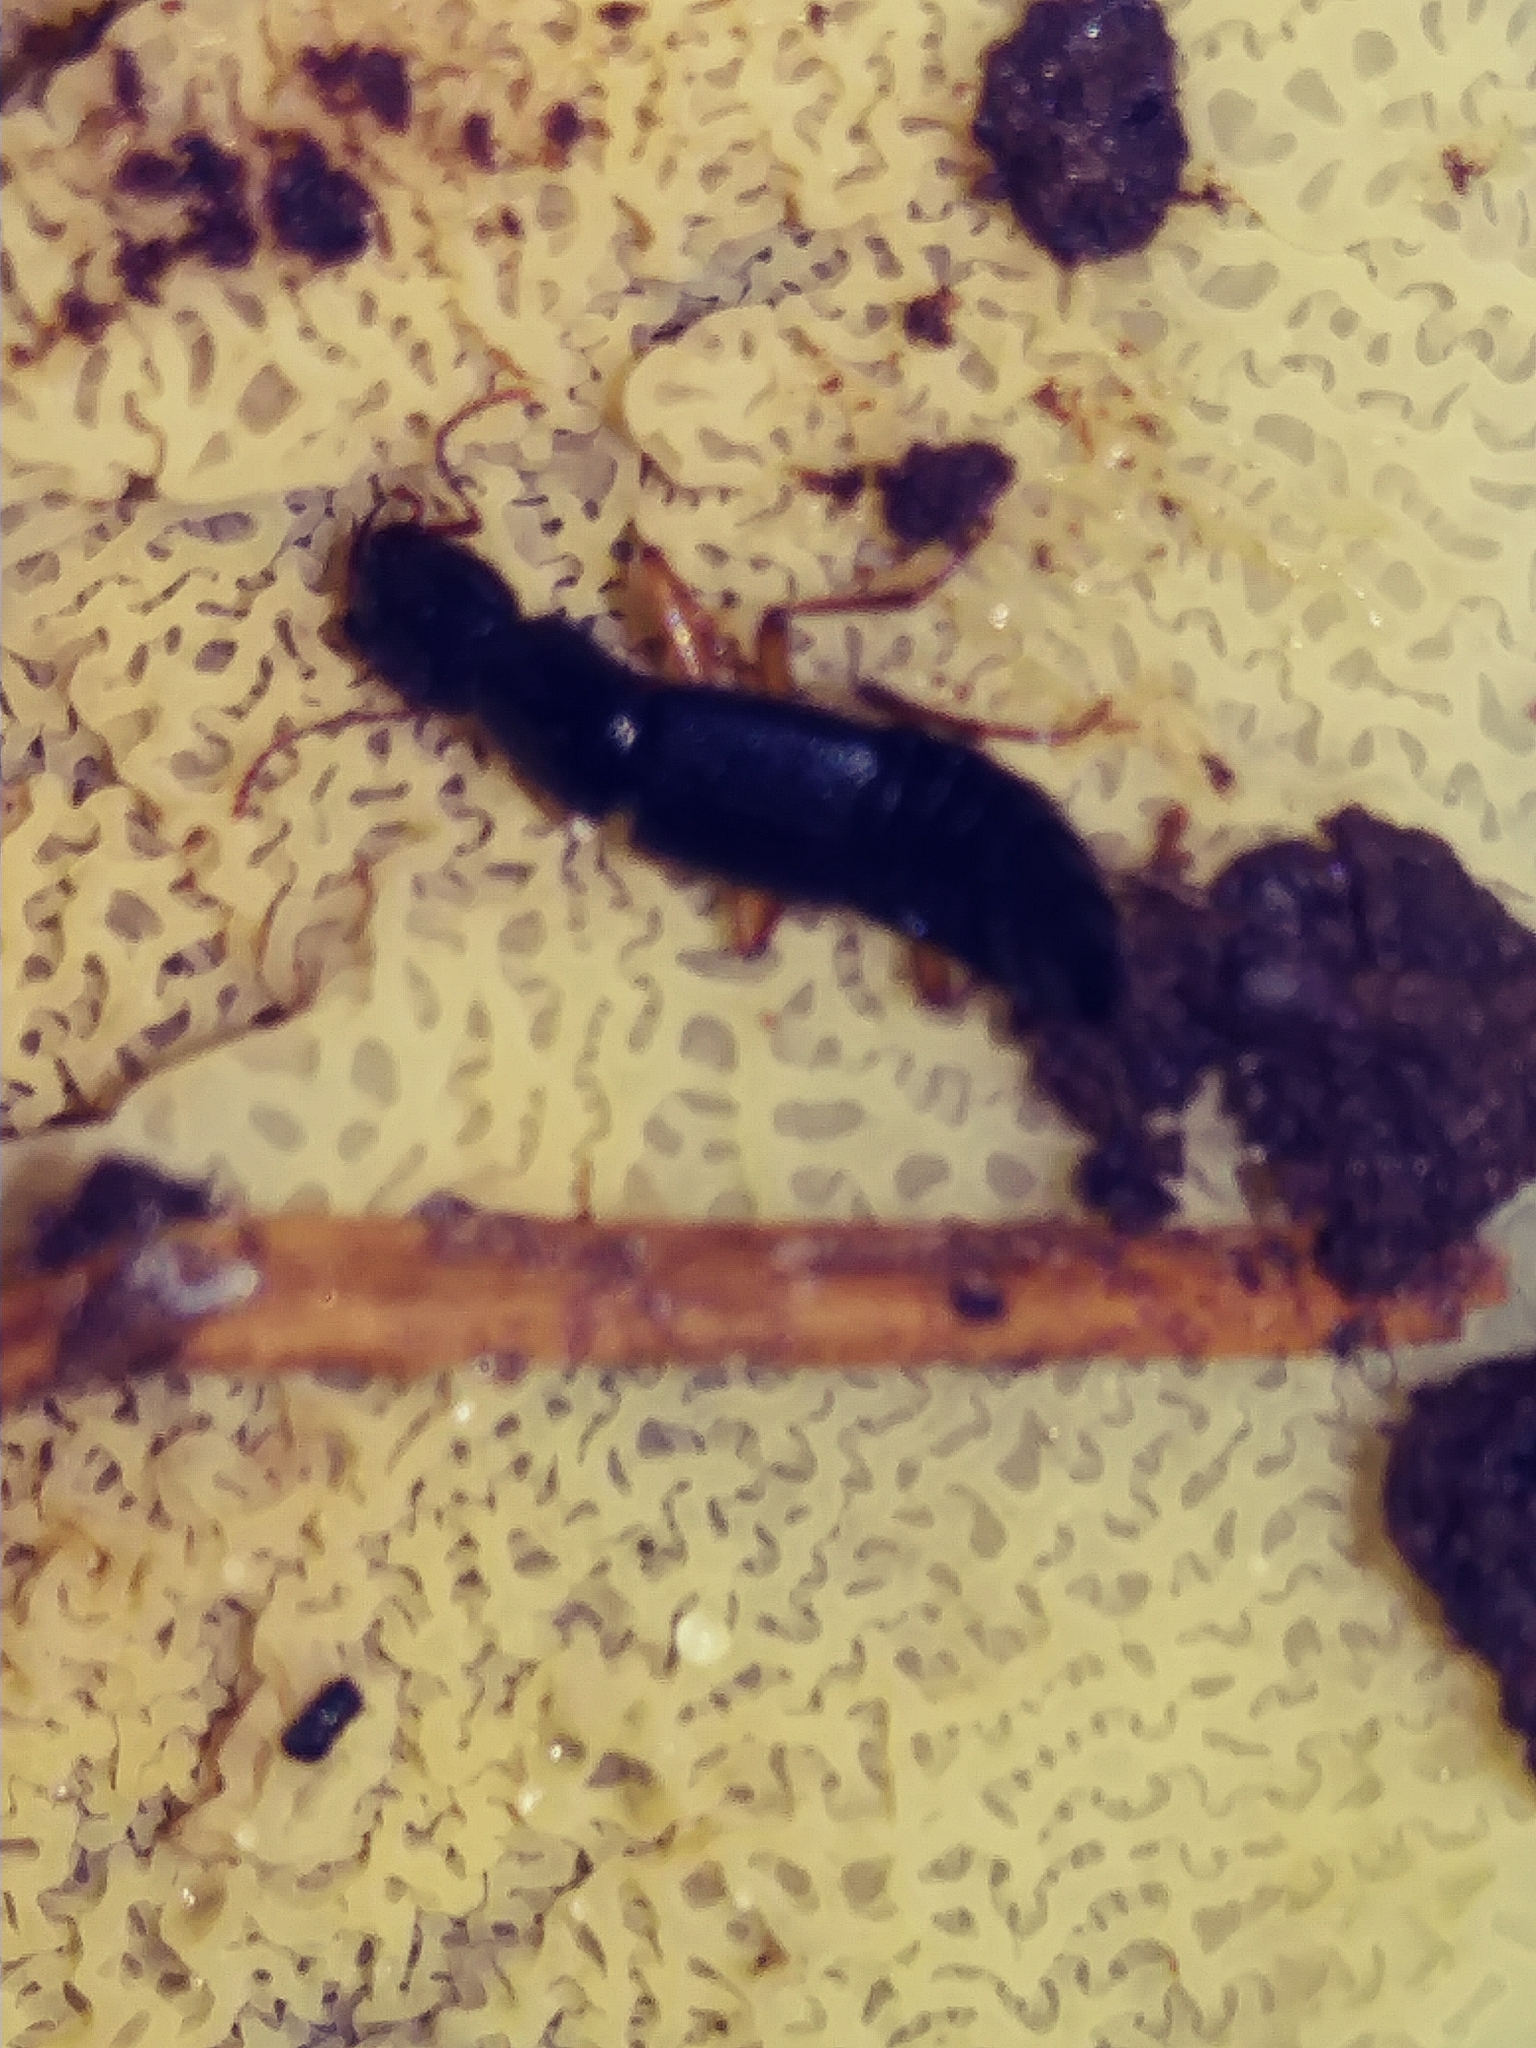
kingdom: Fungi
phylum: Basidiomycota
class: Agaricomycetes
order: Polyporales
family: Meruliaceae
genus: Phlebia
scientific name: Phlebia tremellosa
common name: Jelly rot
